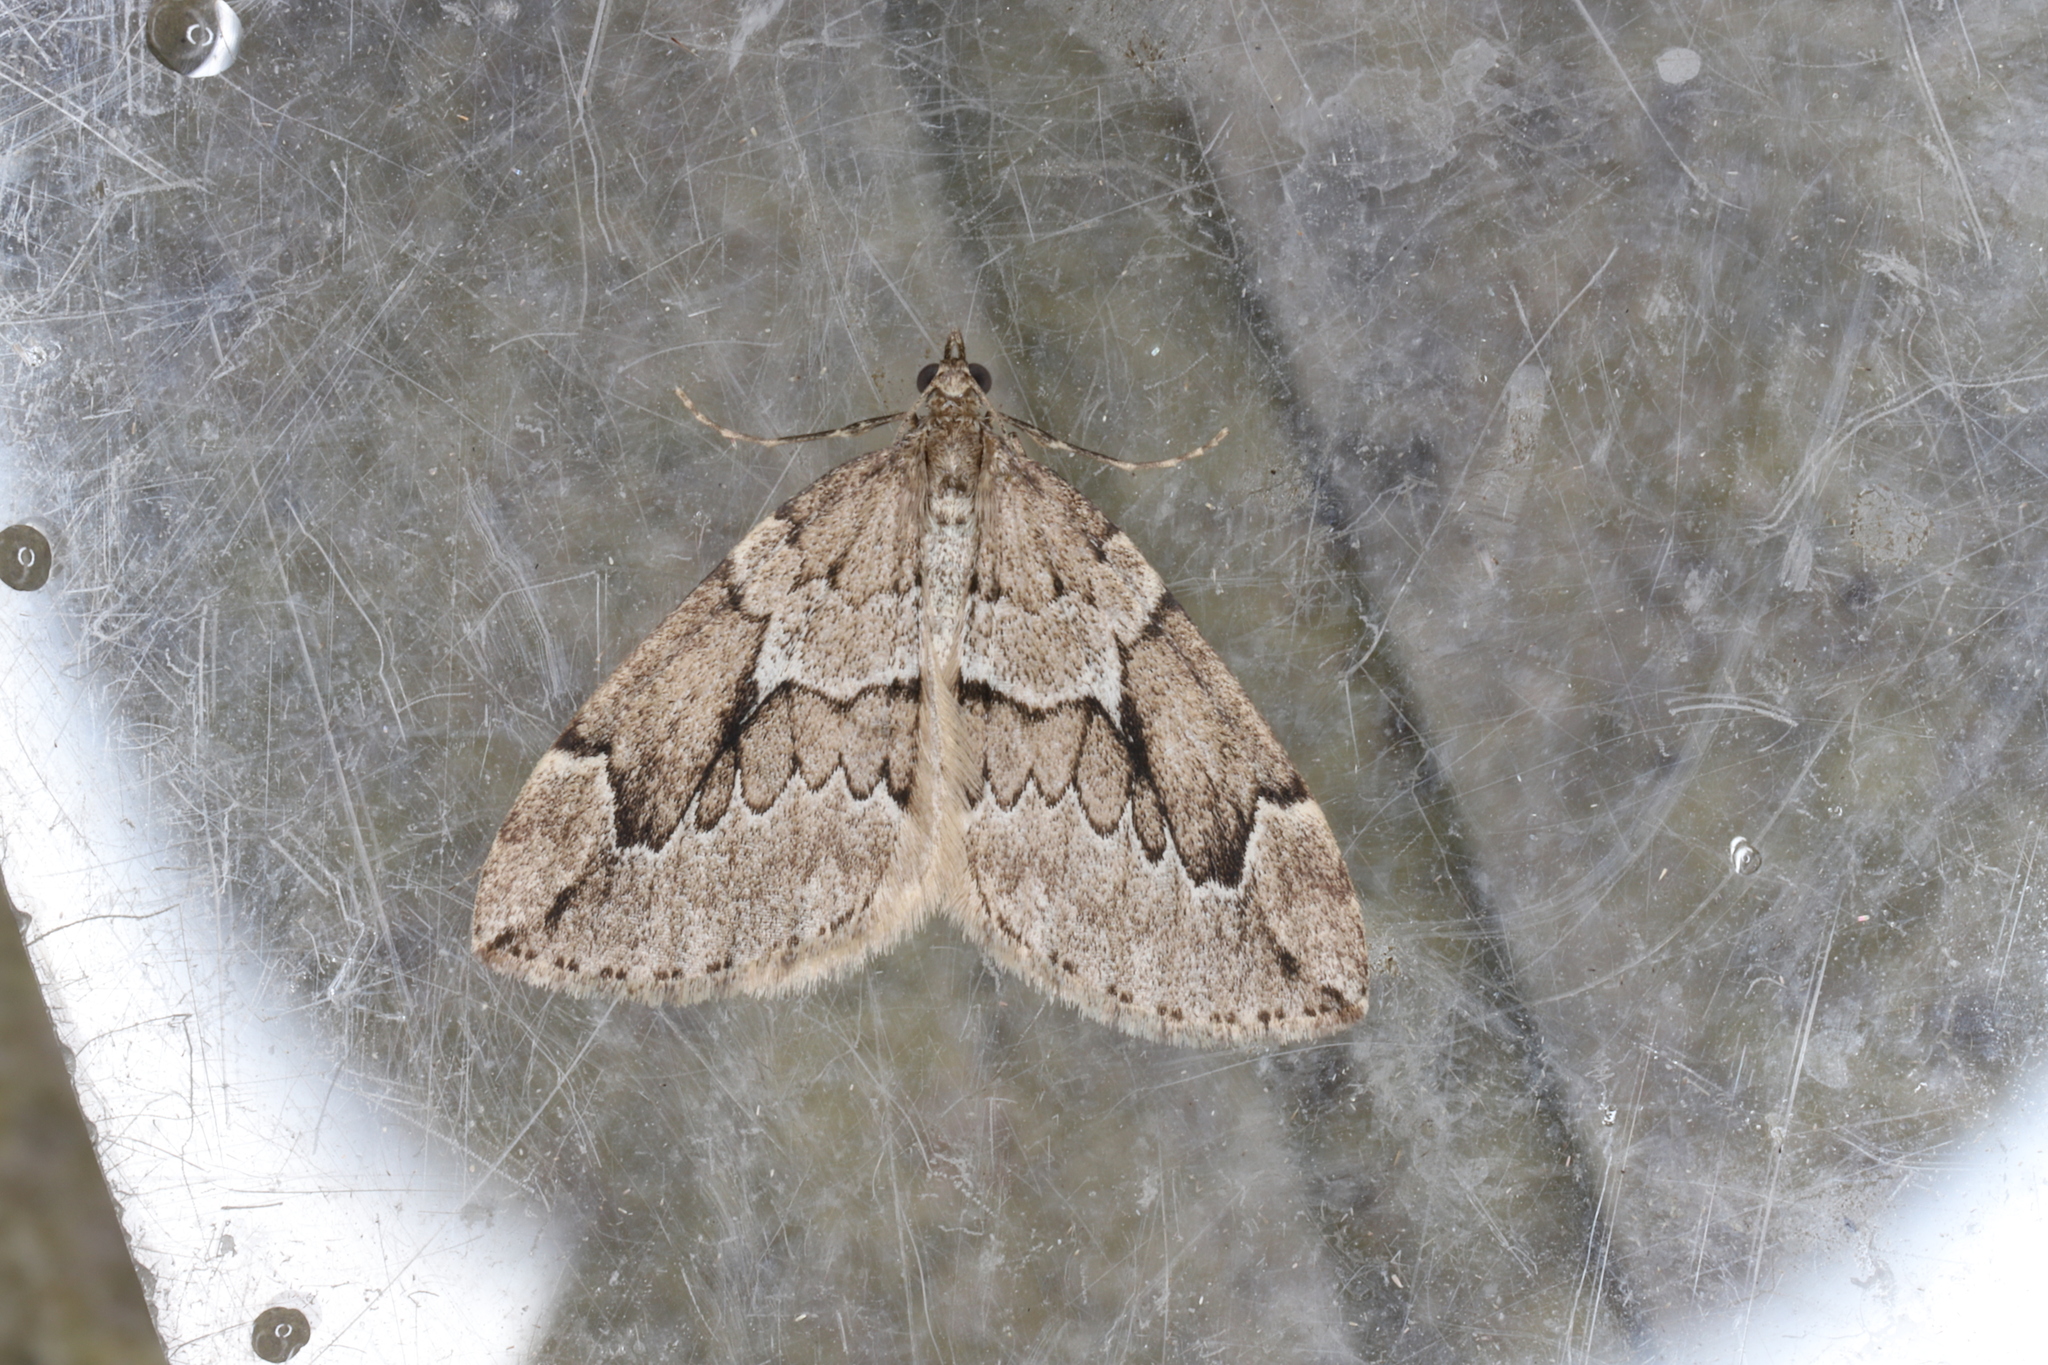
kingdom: Animalia
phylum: Arthropoda
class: Insecta
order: Lepidoptera
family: Geometridae
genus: Thera
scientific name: Thera juniperata
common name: Juniper carpet
